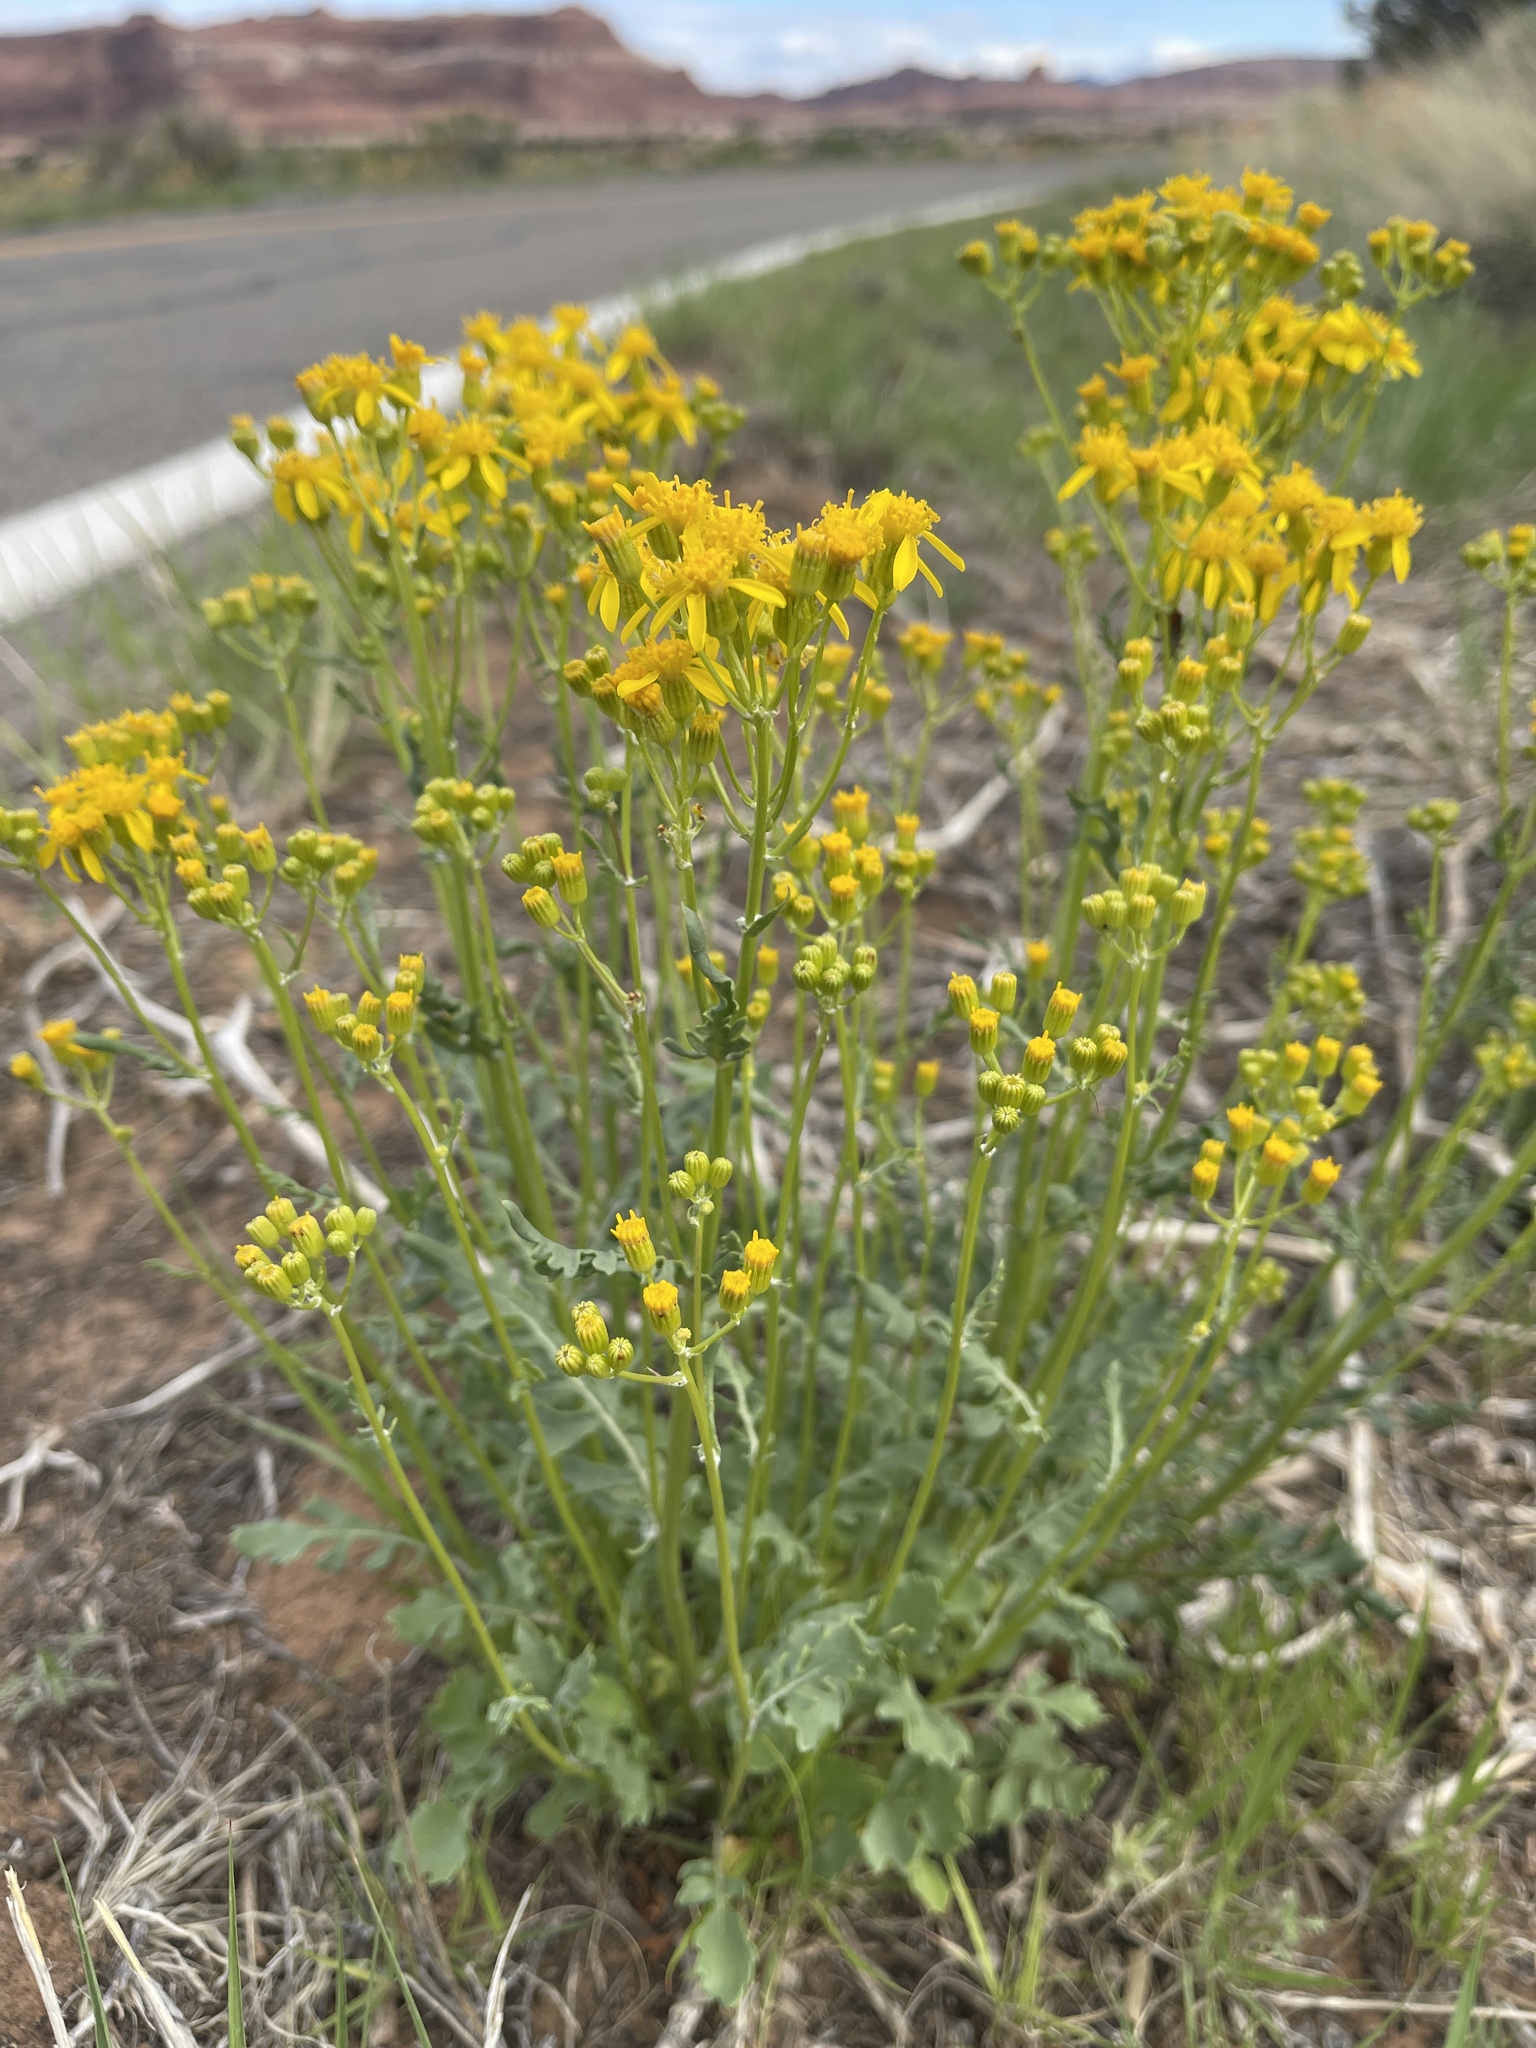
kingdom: Plantae
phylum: Tracheophyta
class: Magnoliopsida
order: Asterales
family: Asteraceae
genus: Packera
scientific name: Packera multilobata
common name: Lobe-leaf groundsel
